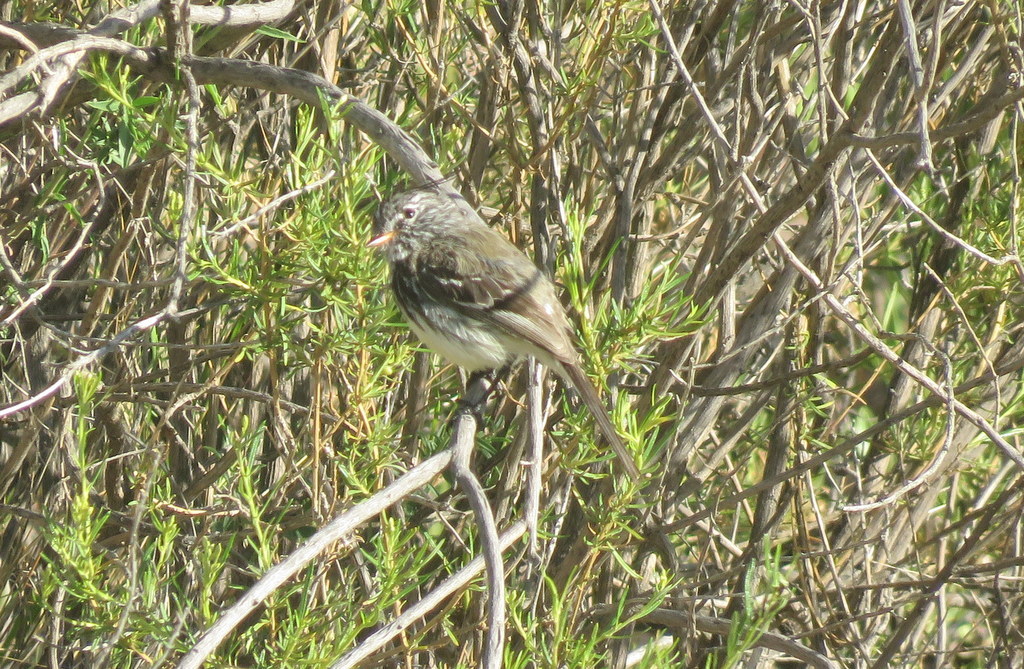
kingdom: Animalia
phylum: Chordata
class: Aves
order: Passeriformes
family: Tyrannidae
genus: Anairetes
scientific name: Anairetes flavirostris
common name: Yellow-billed tit-tyrant
